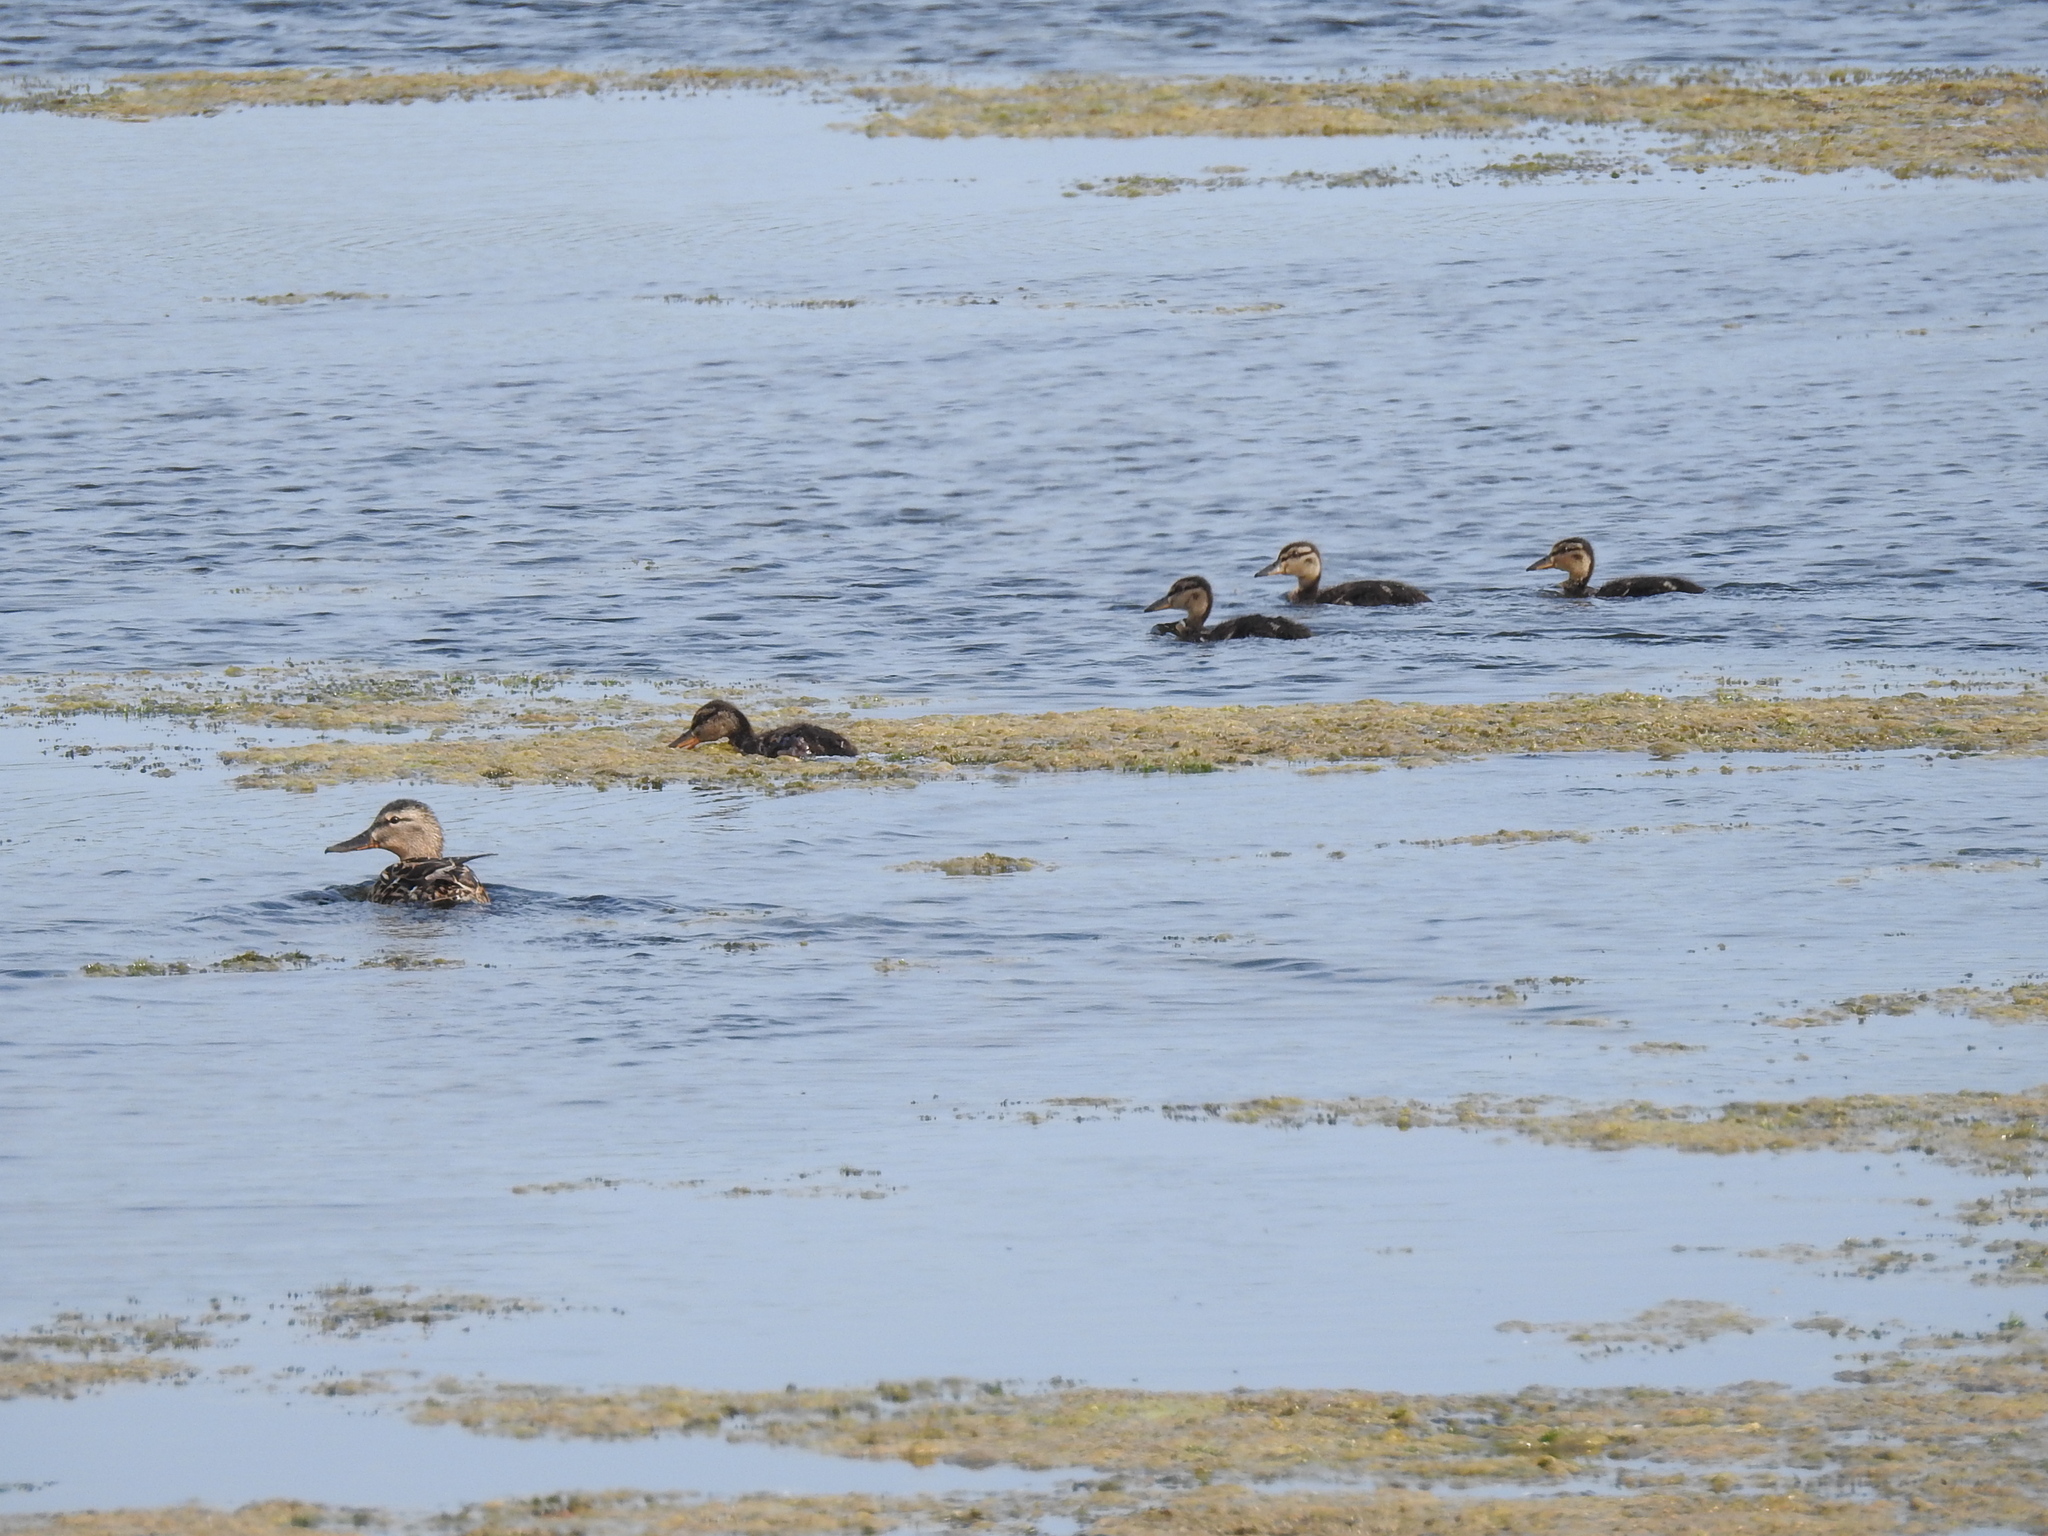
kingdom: Animalia
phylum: Chordata
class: Aves
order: Anseriformes
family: Anatidae
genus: Anas
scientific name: Anas platyrhynchos
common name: Mallard
